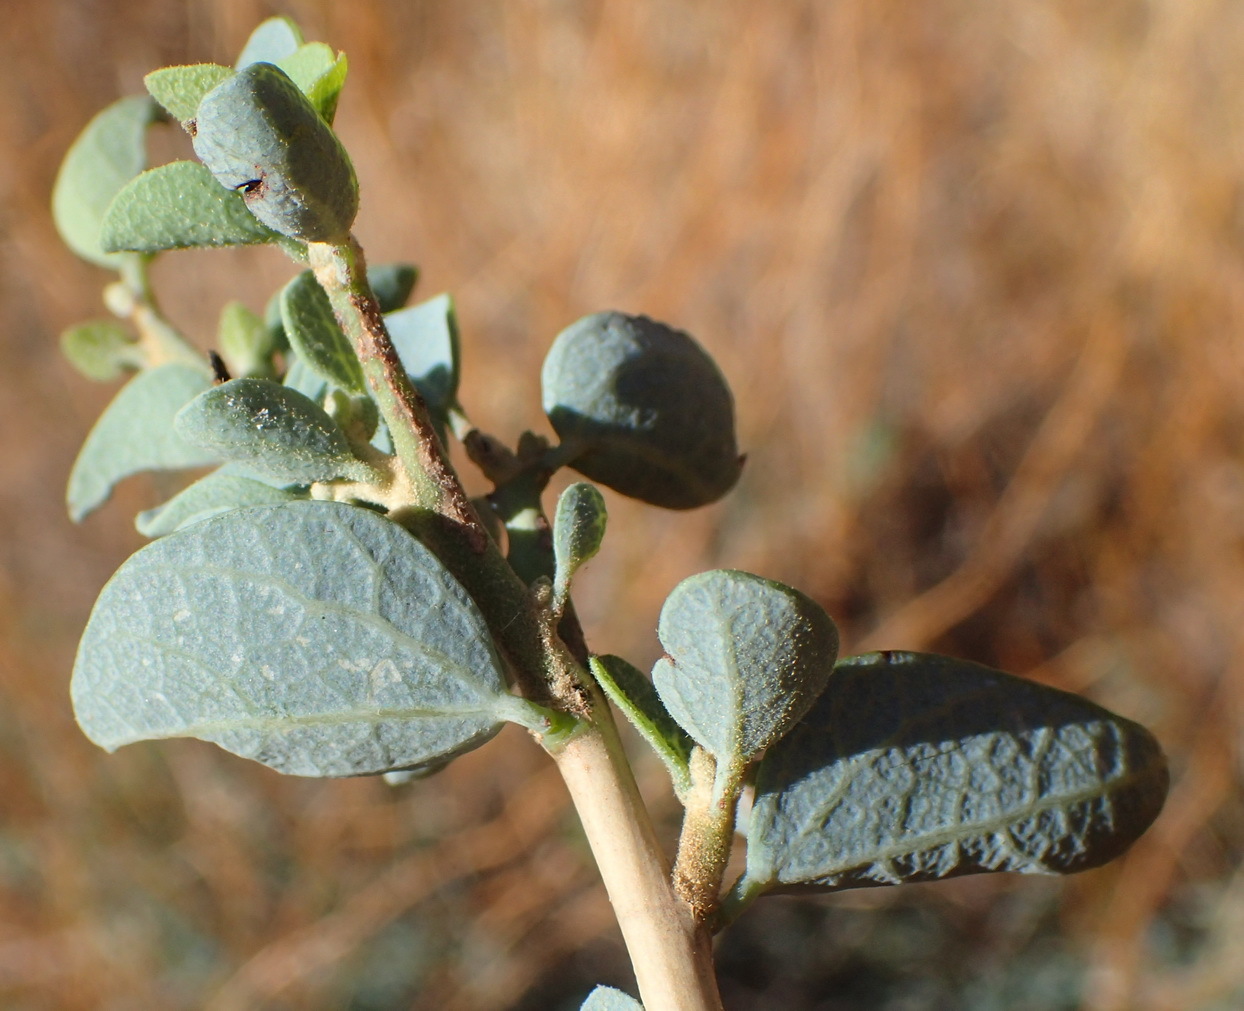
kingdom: Plantae
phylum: Tracheophyta
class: Magnoliopsida
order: Ranunculales
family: Menispermaceae
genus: Cissampelos
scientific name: Cissampelos capensis
